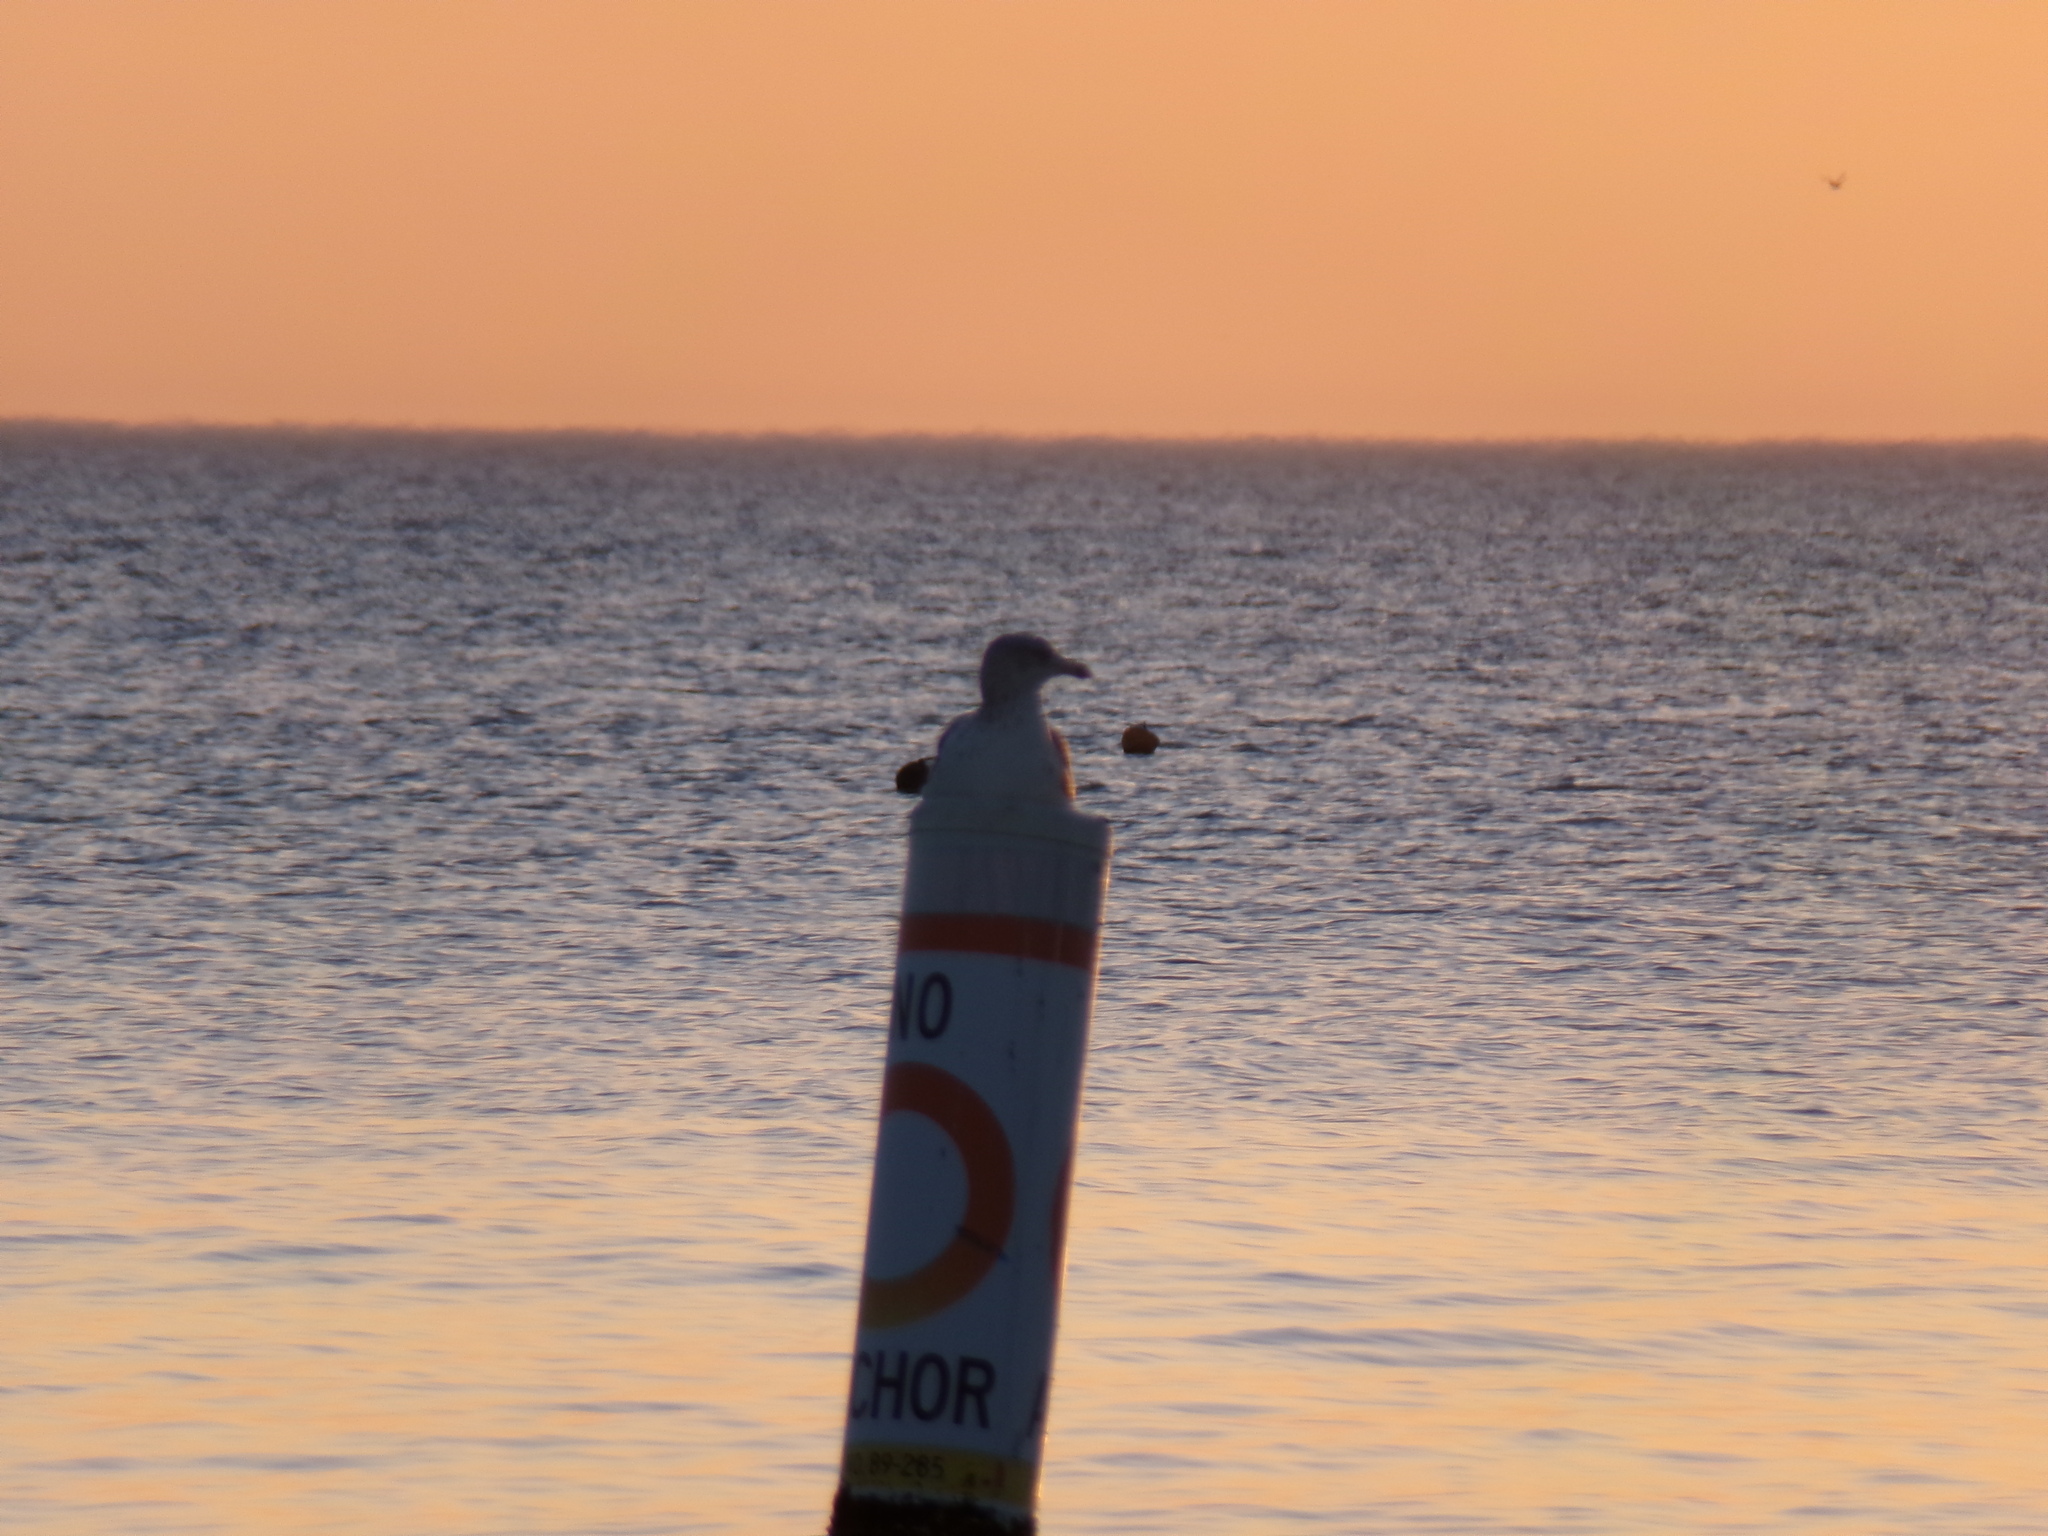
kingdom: Animalia
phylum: Chordata
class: Aves
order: Charadriiformes
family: Laridae
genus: Larus
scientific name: Larus fuscus
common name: Lesser black-backed gull
